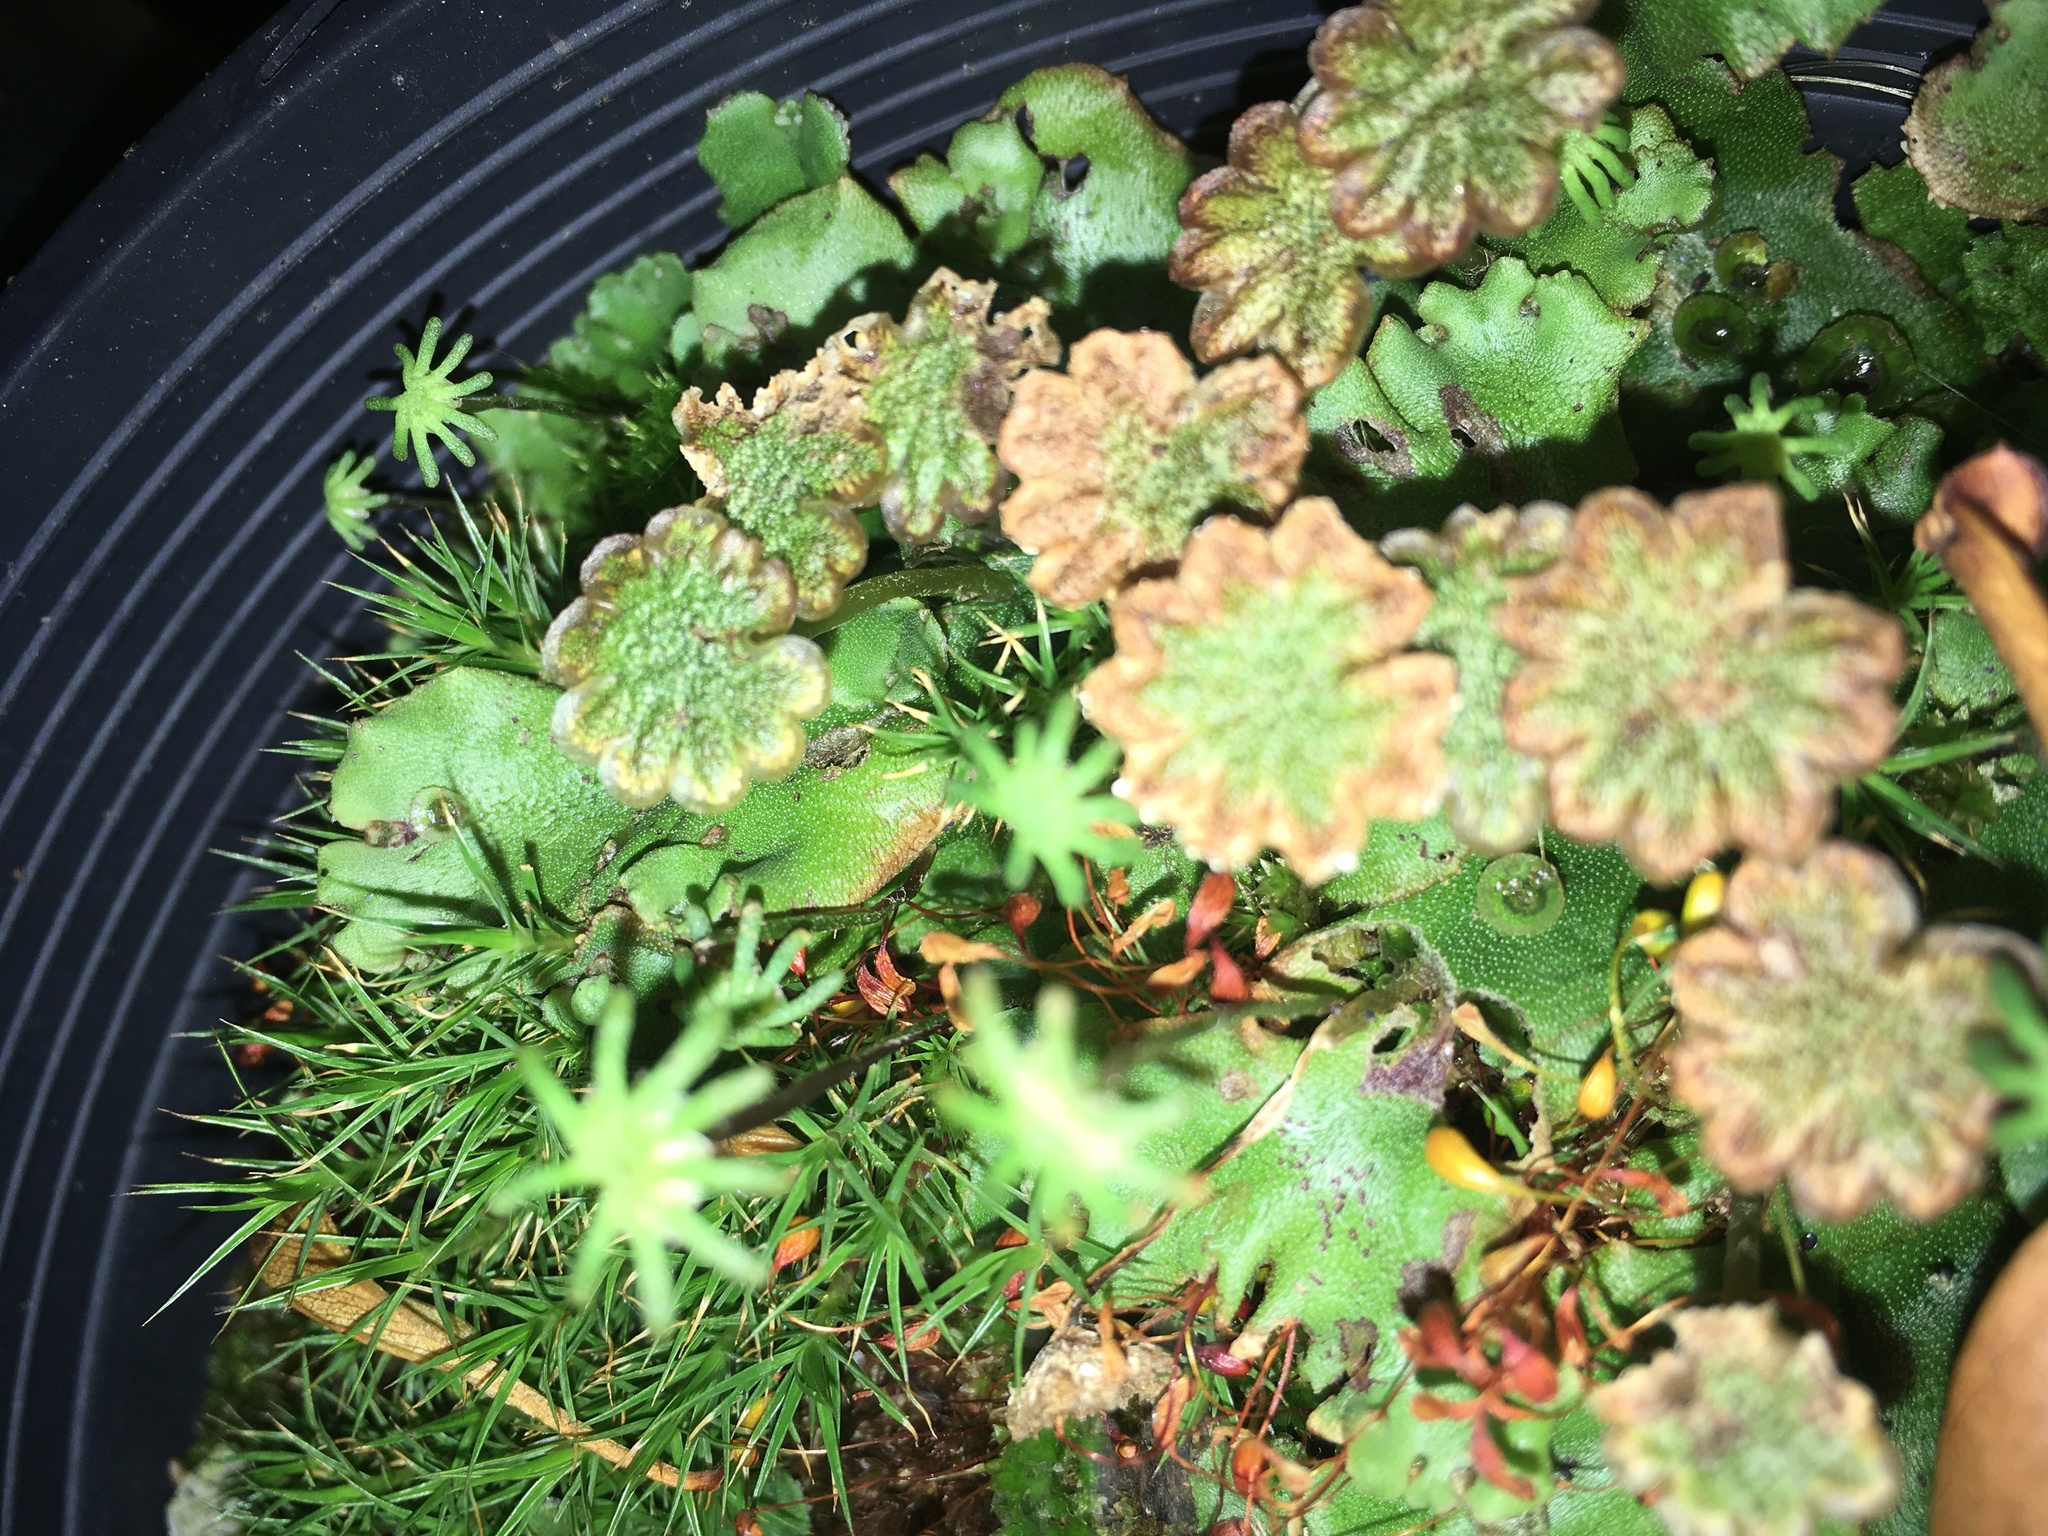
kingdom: Plantae
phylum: Marchantiophyta
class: Marchantiopsida
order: Marchantiales
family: Marchantiaceae
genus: Marchantia
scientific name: Marchantia polymorpha
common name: Common liverwort
